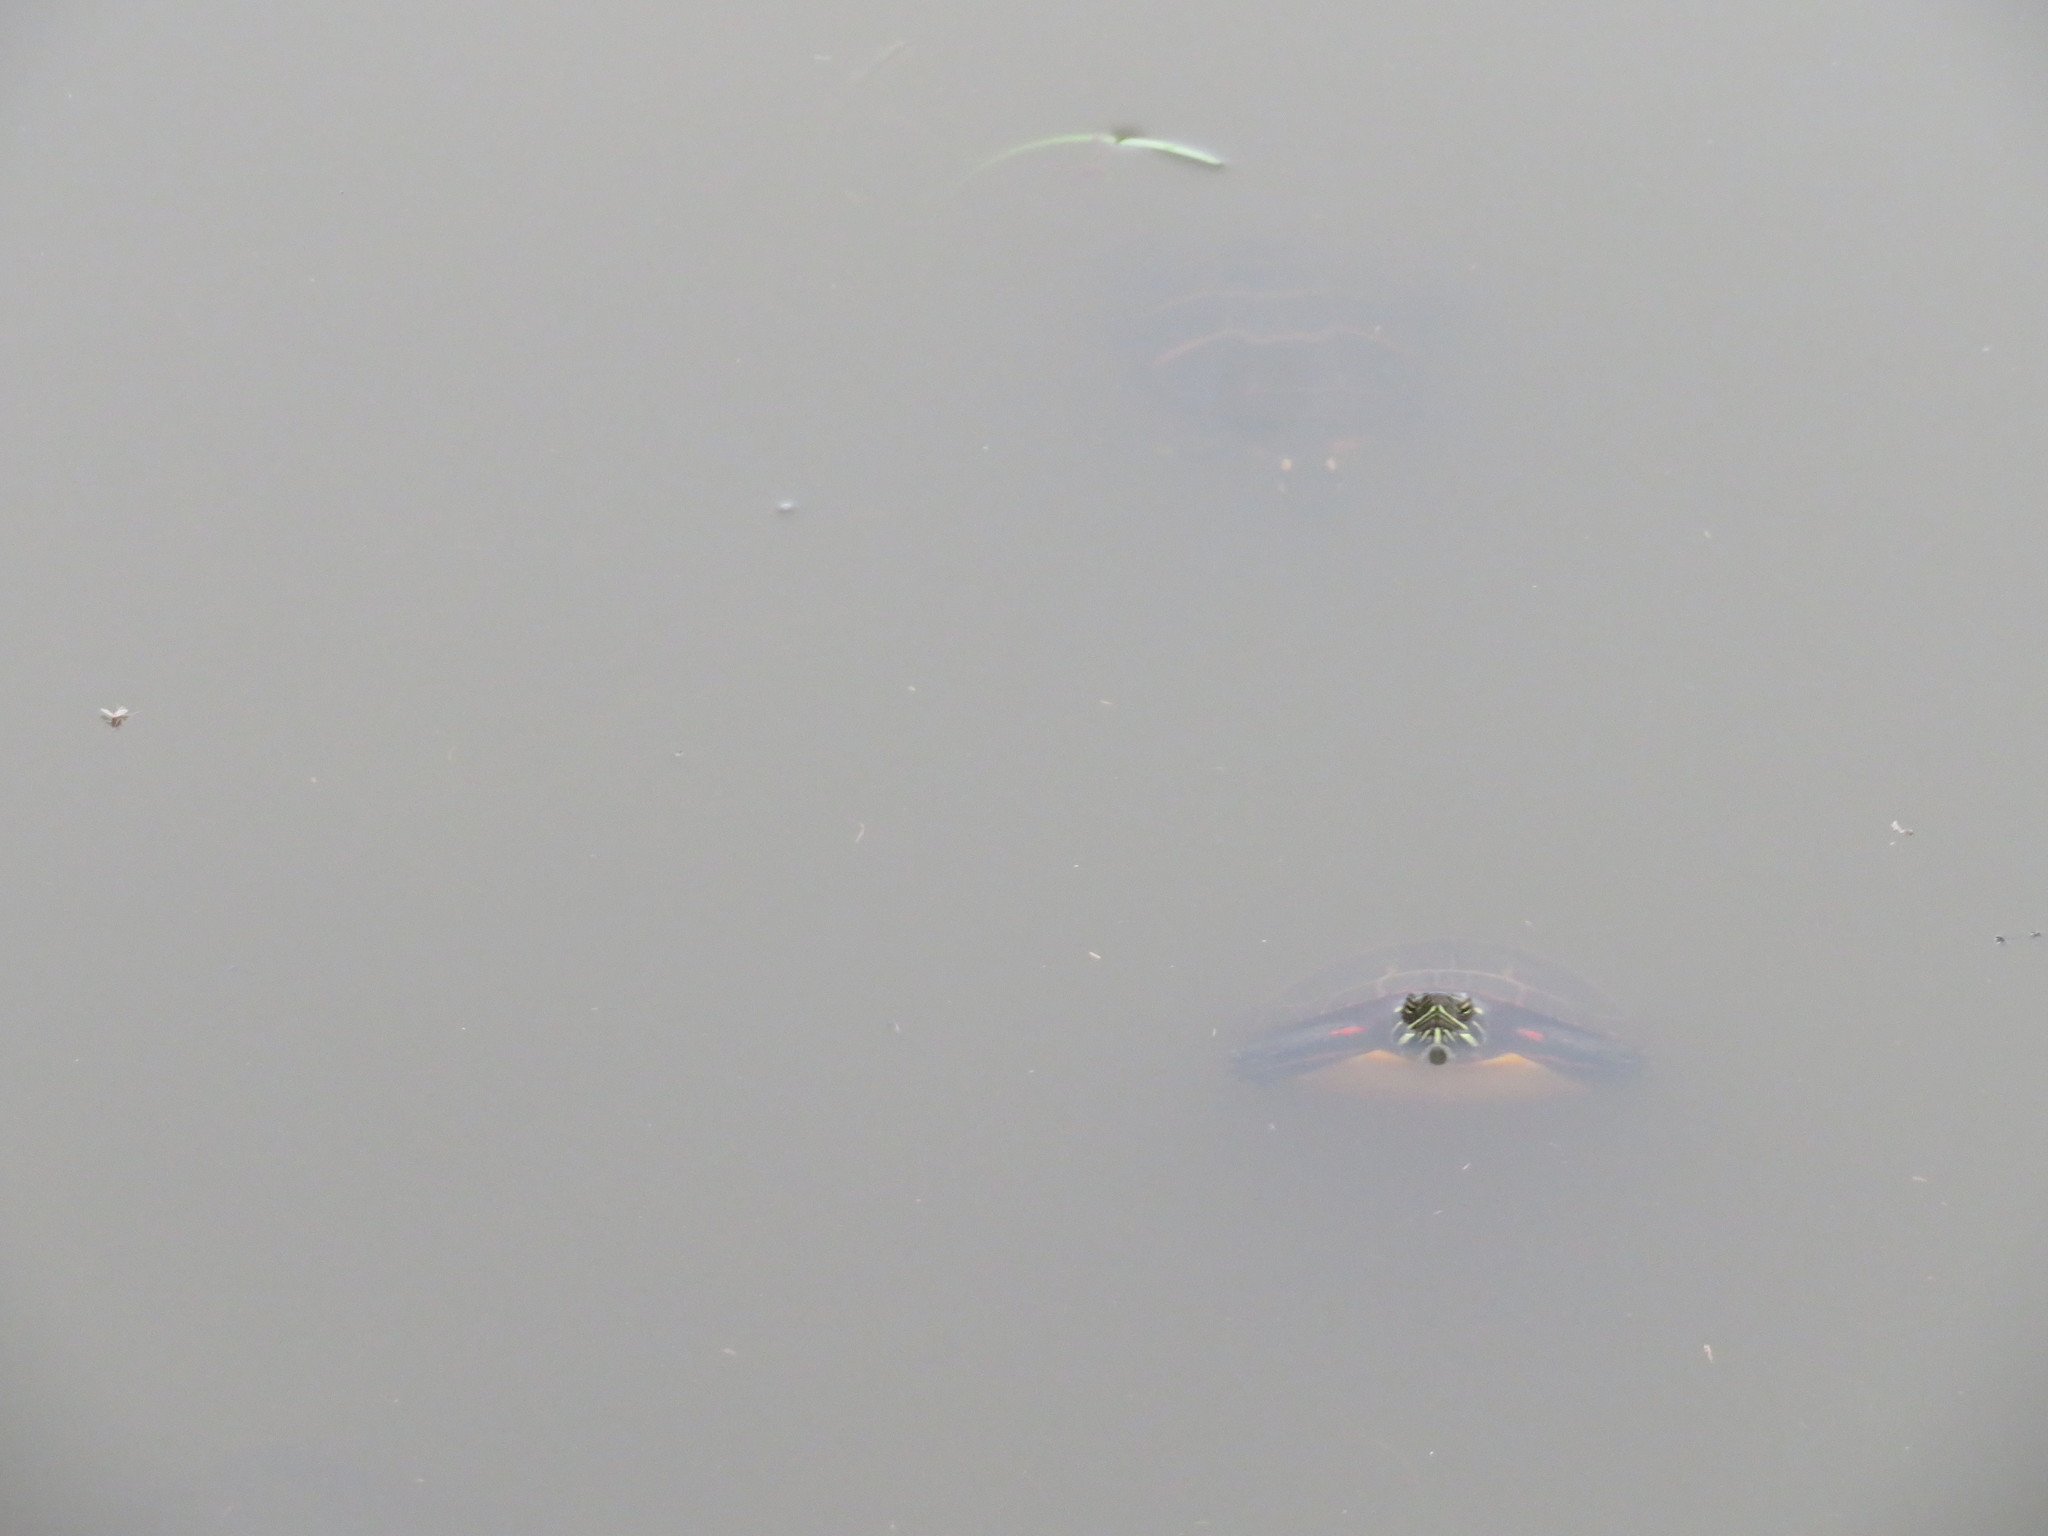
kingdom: Animalia
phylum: Chordata
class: Testudines
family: Emydidae
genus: Chrysemys
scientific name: Chrysemys picta
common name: Painted turtle
